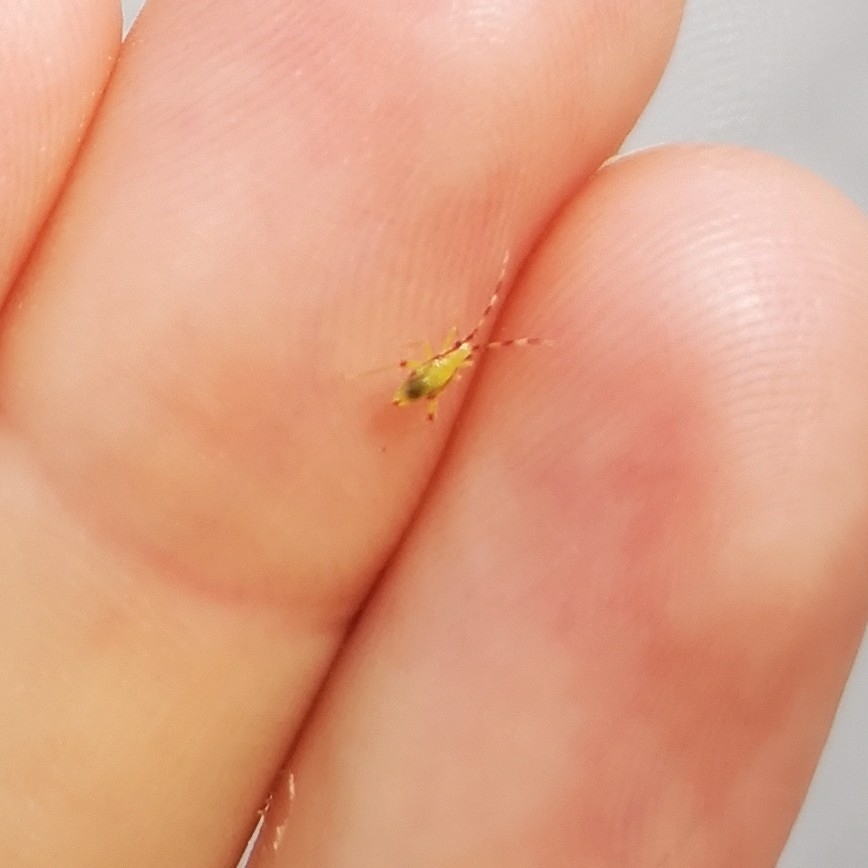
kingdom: Animalia
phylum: Arthropoda
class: Insecta
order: Hemiptera
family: Miridae
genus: Campyloneura
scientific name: Campyloneura virgula
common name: Predatory bug
